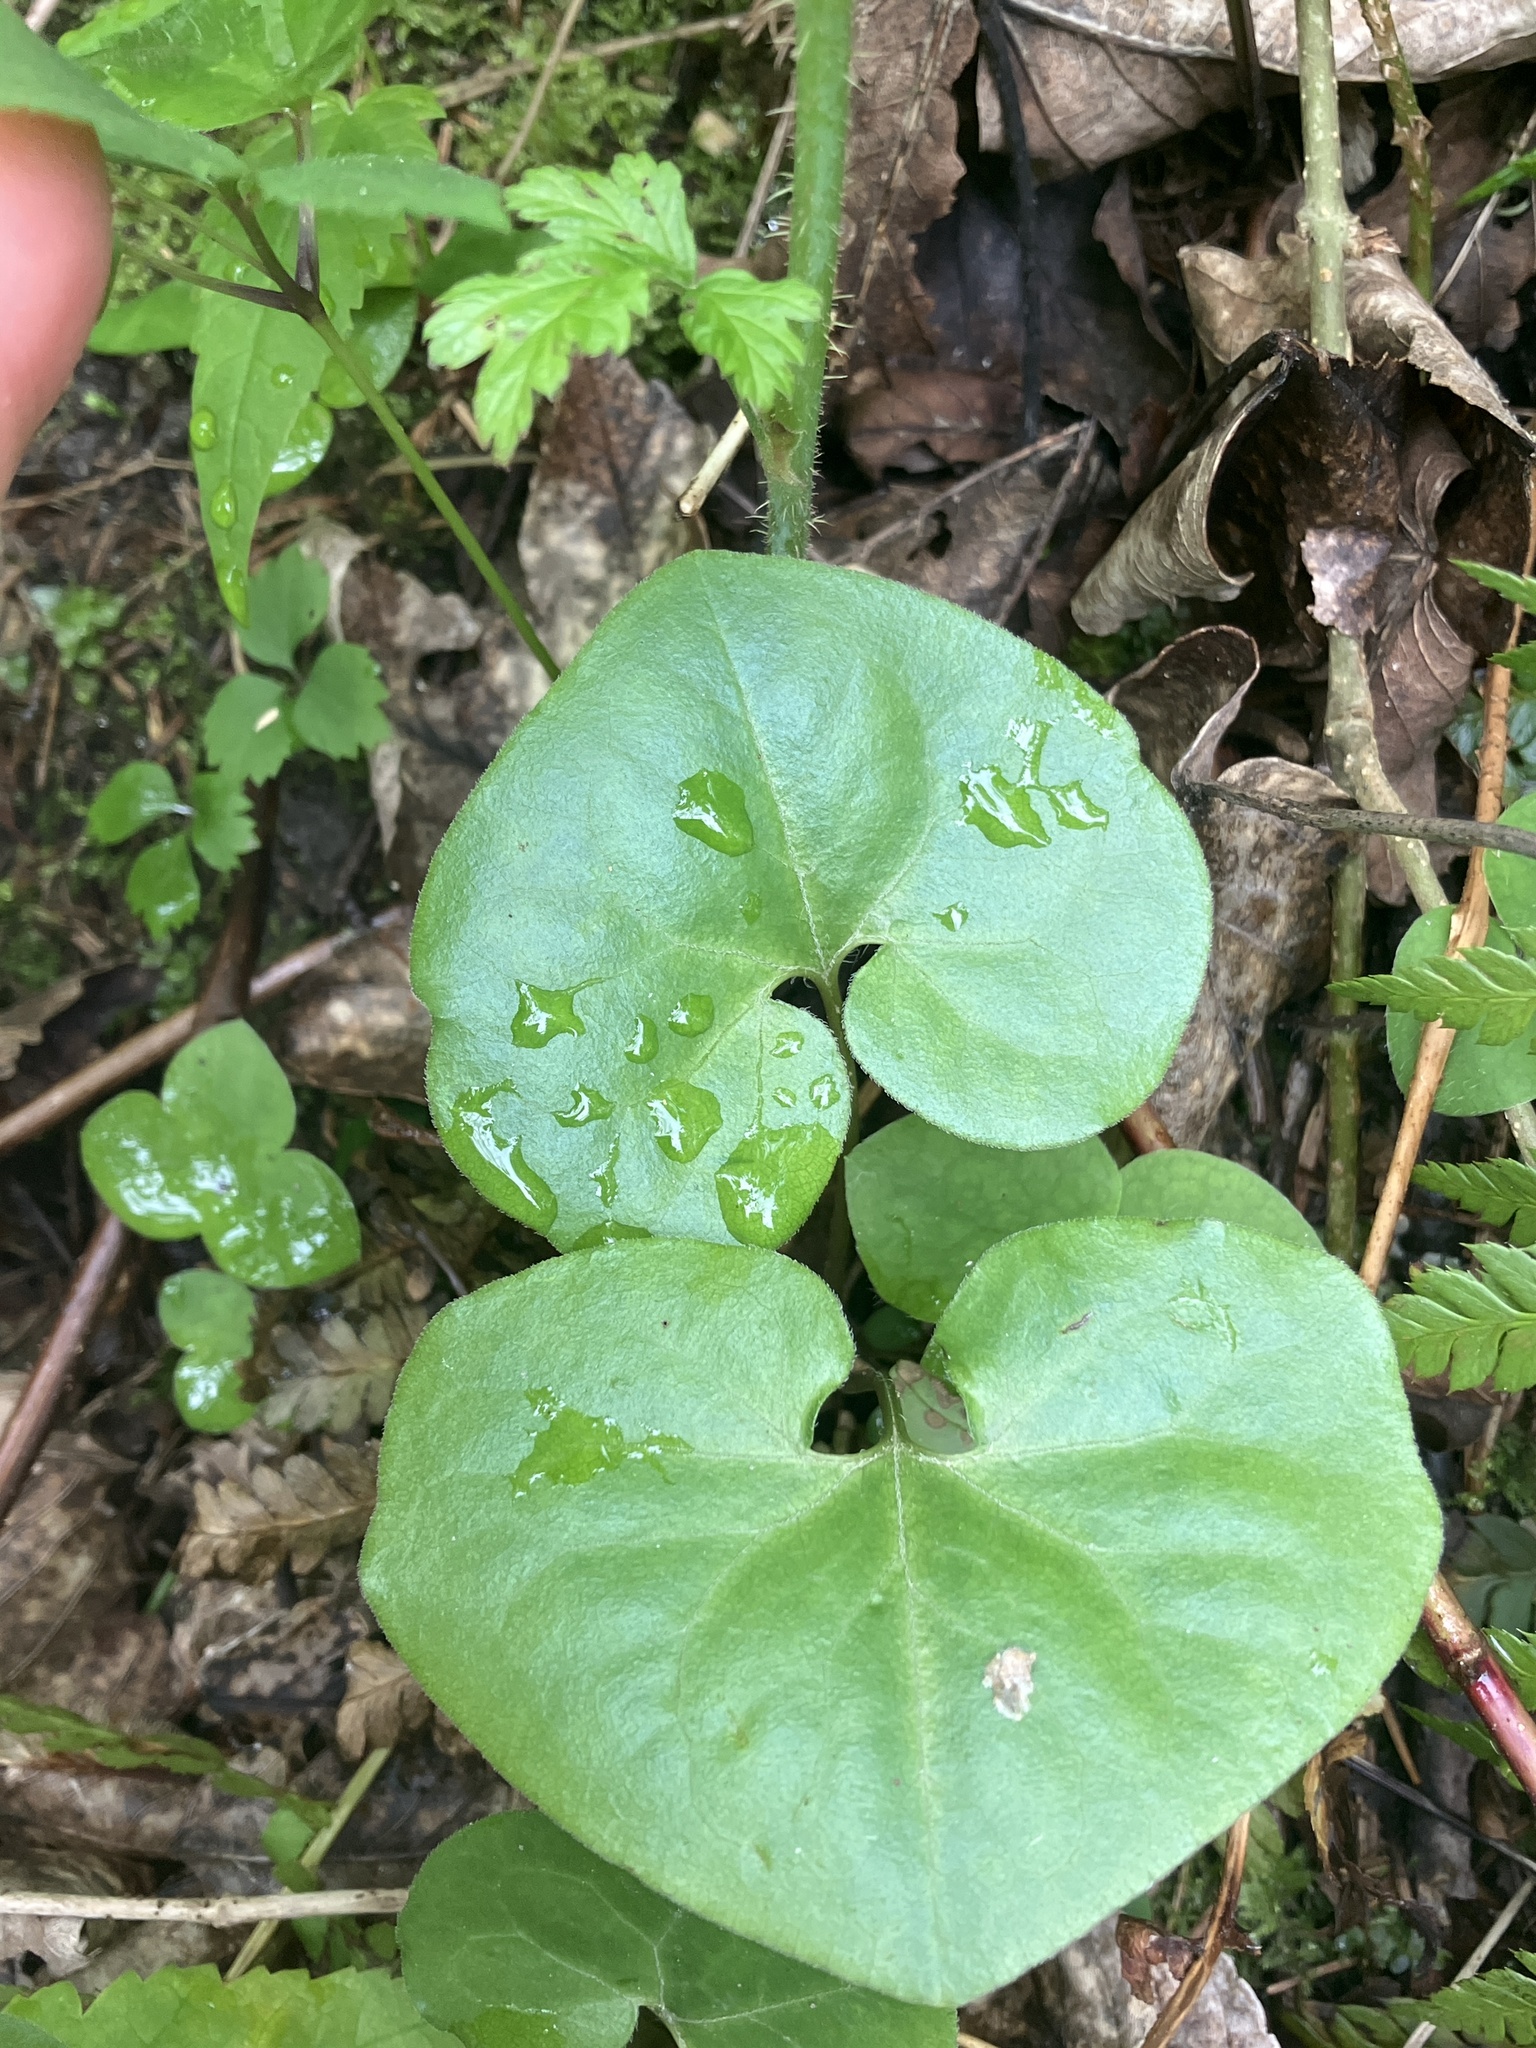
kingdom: Plantae
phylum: Tracheophyta
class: Magnoliopsida
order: Piperales
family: Aristolochiaceae
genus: Asarum
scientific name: Asarum europaeum
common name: Asarabacca
